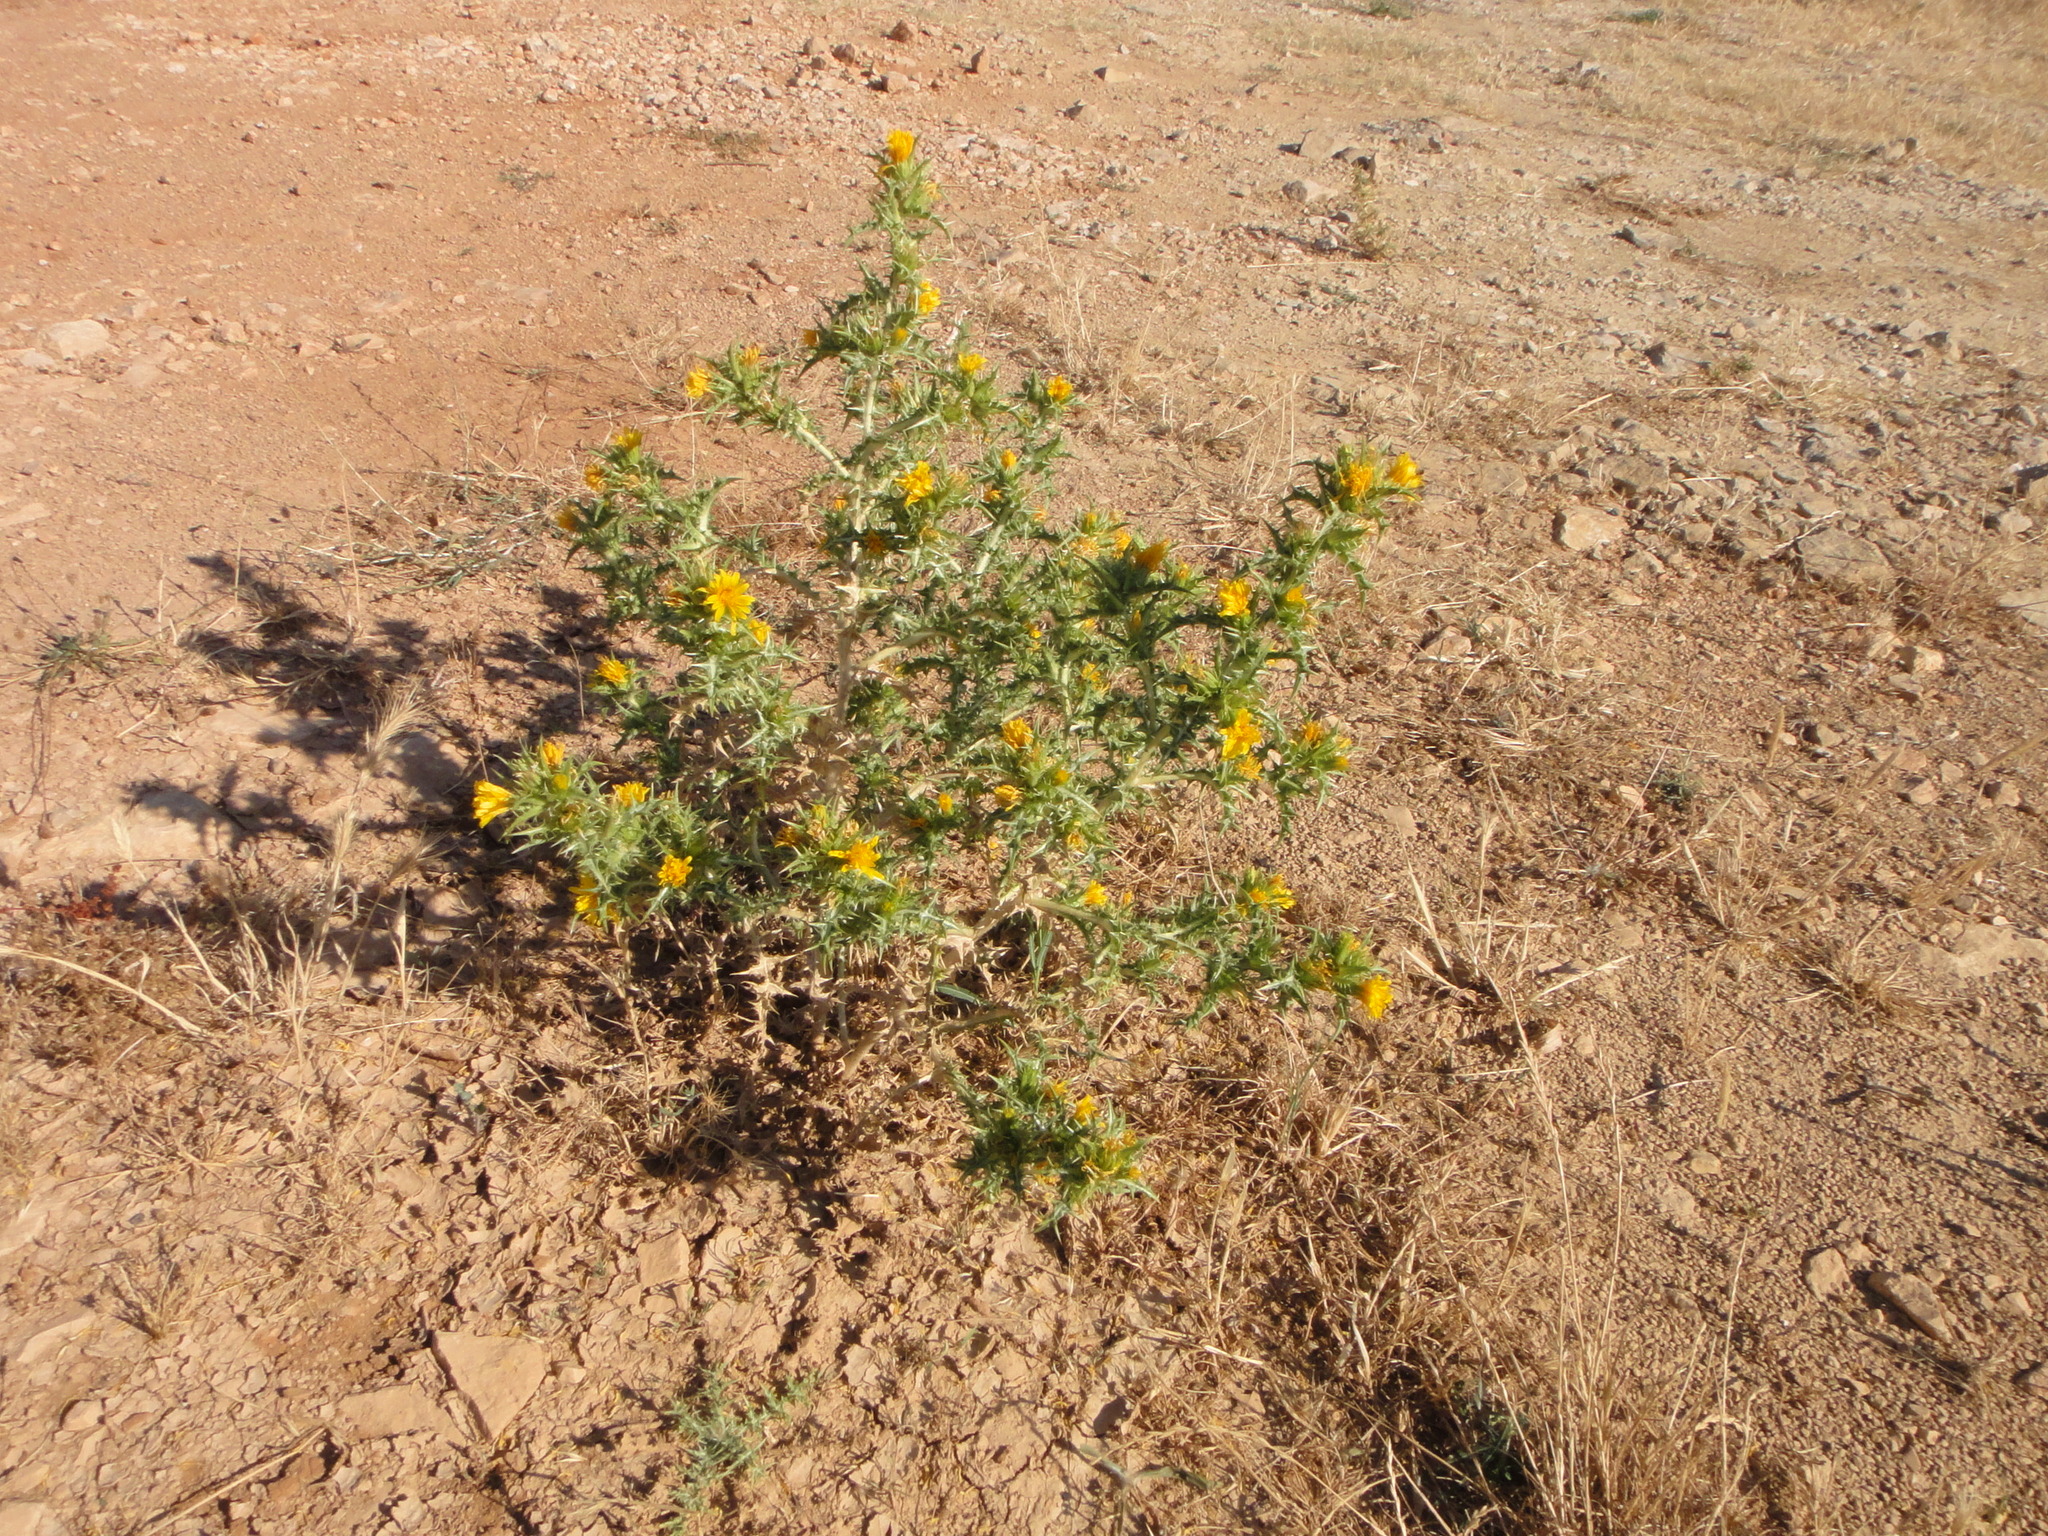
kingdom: Plantae
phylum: Tracheophyta
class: Magnoliopsida
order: Asterales
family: Asteraceae
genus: Scolymus
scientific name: Scolymus hispanicus
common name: Golden thistle
